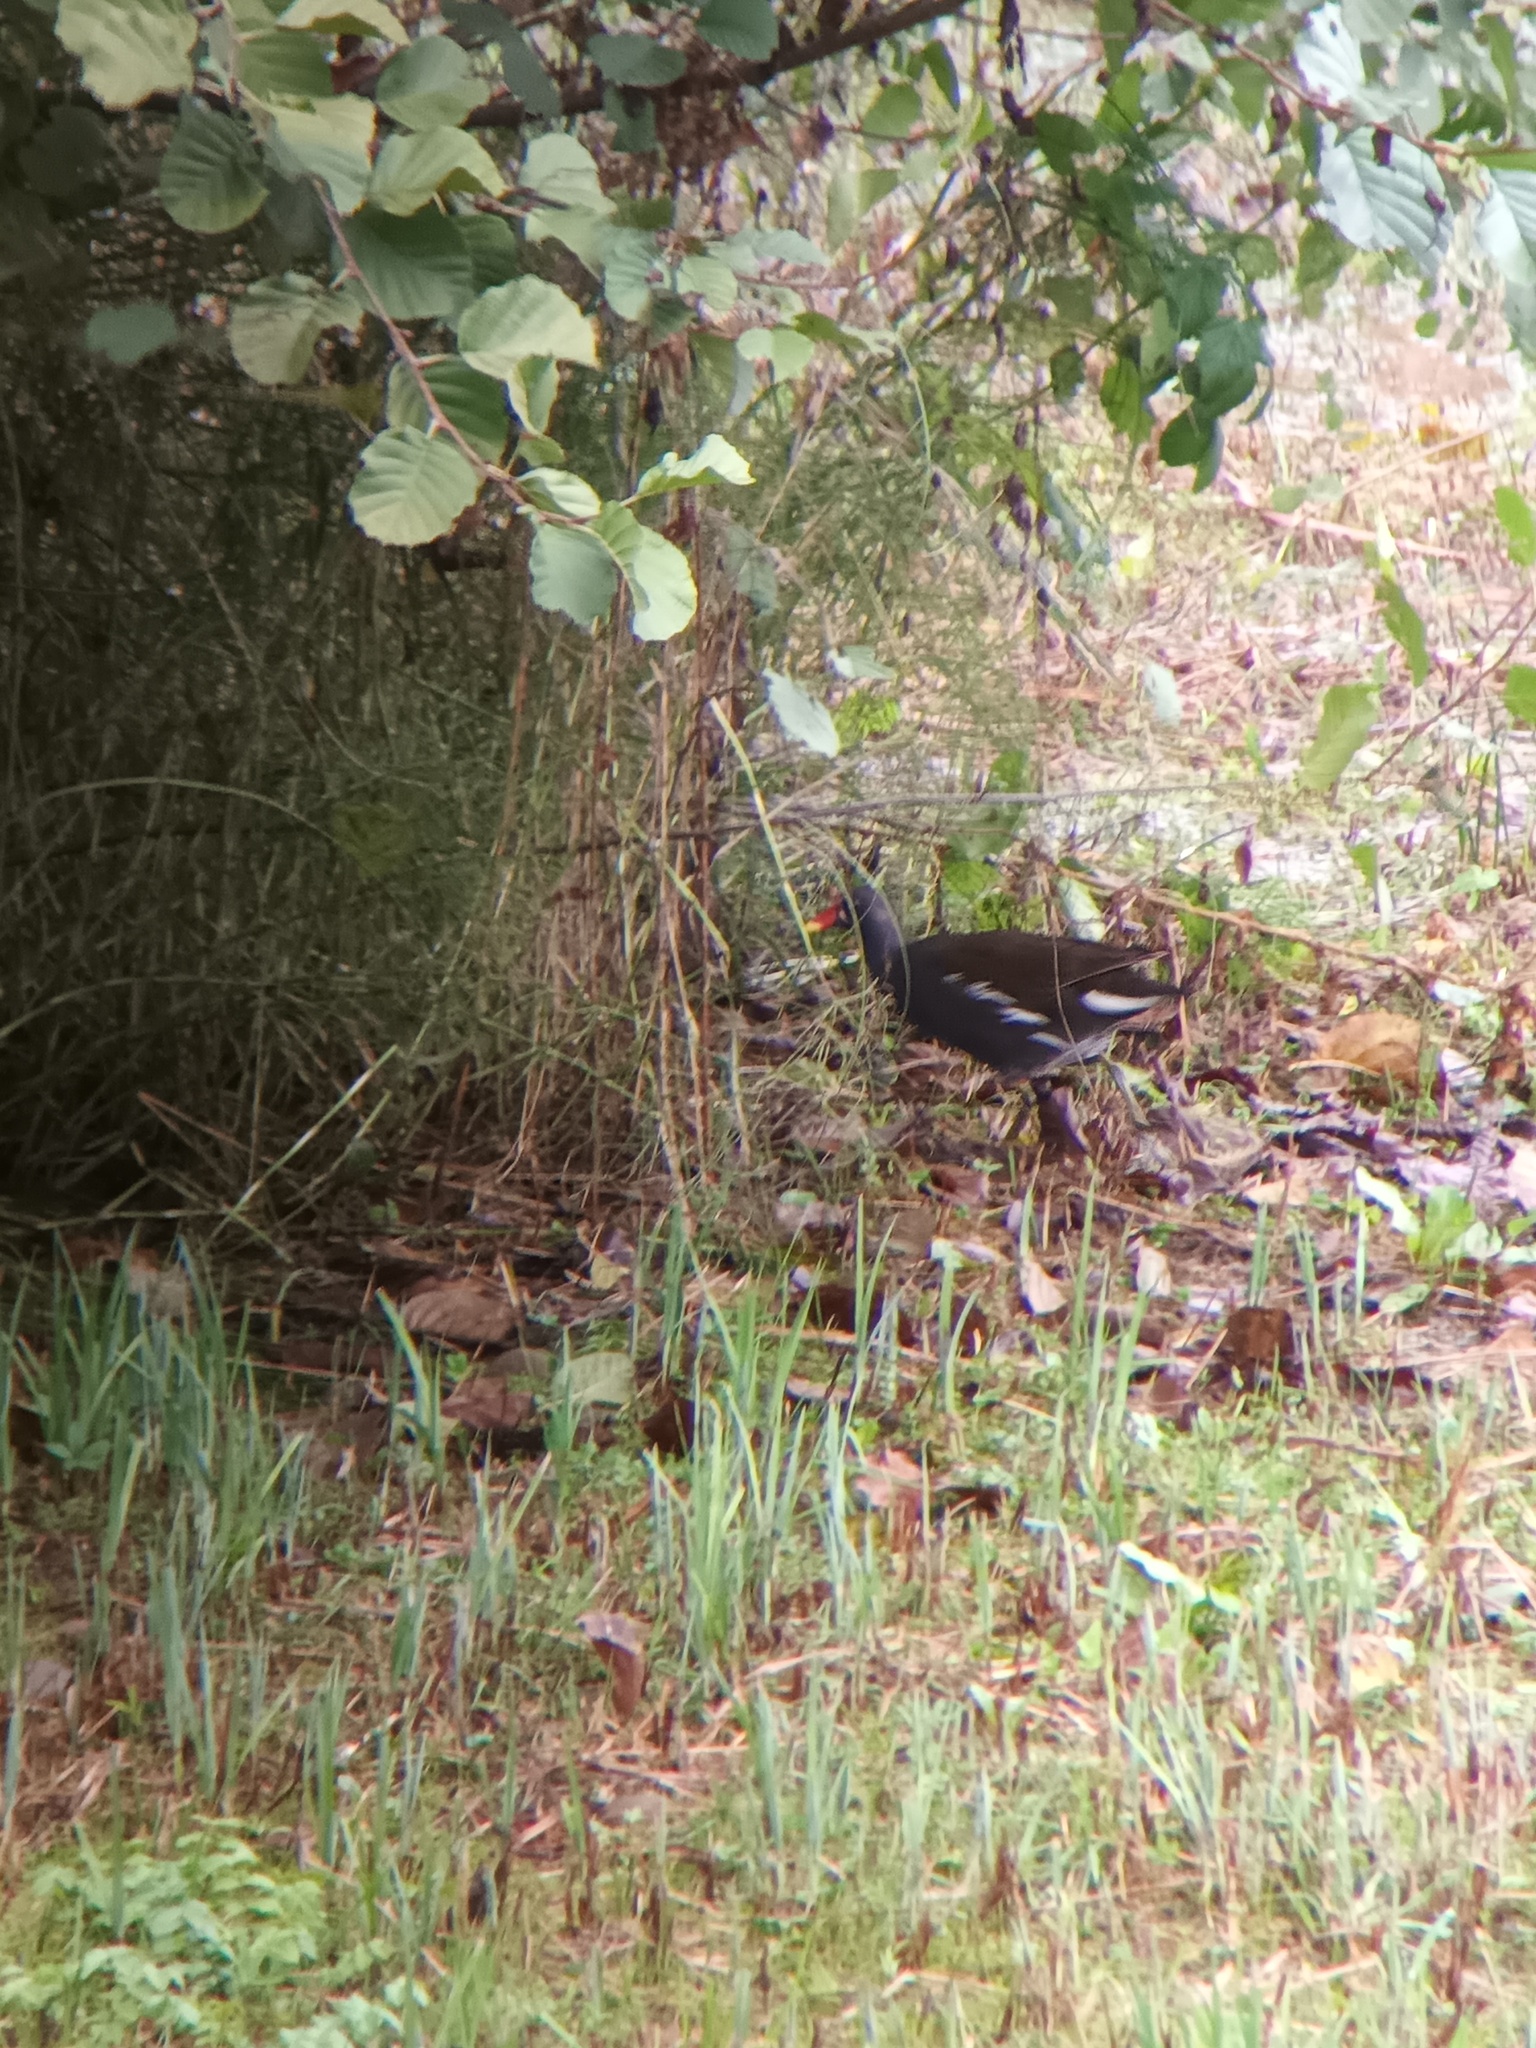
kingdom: Animalia
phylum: Chordata
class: Aves
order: Gruiformes
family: Rallidae
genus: Gallinula
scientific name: Gallinula chloropus
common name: Common moorhen
